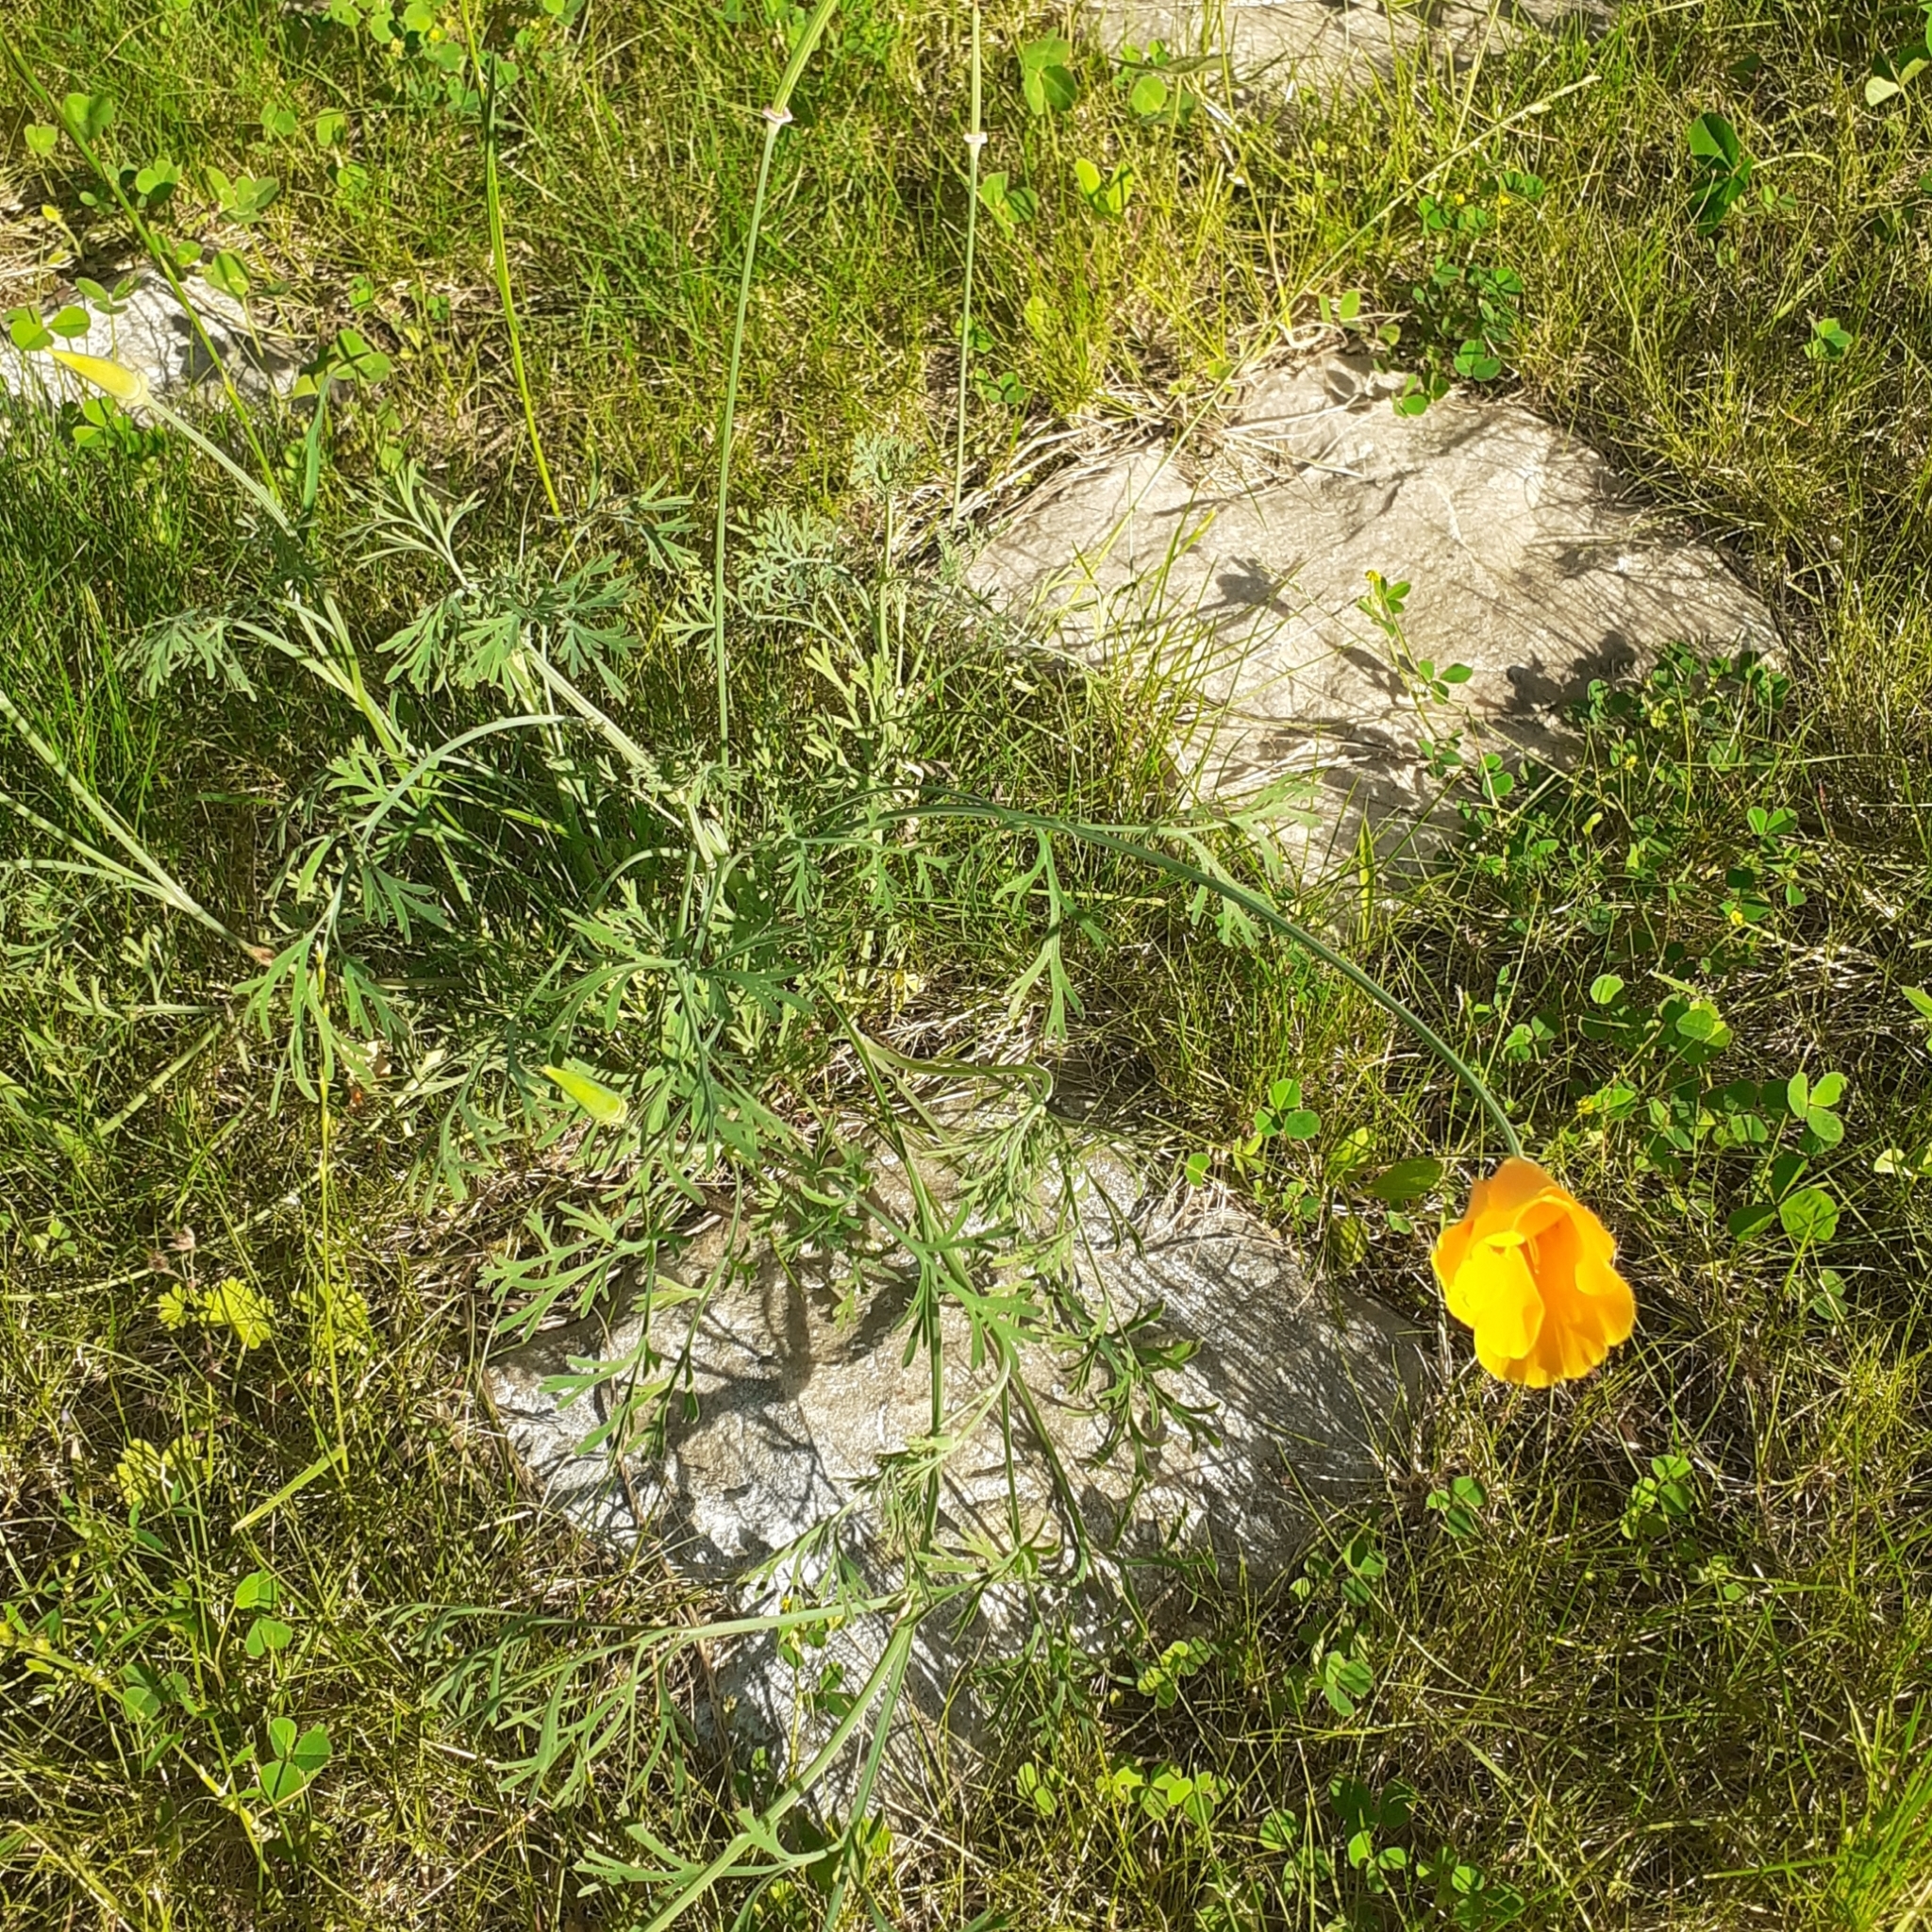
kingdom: Plantae
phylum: Tracheophyta
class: Magnoliopsida
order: Ranunculales
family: Papaveraceae
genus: Eschscholzia
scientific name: Eschscholzia californica
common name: California poppy
